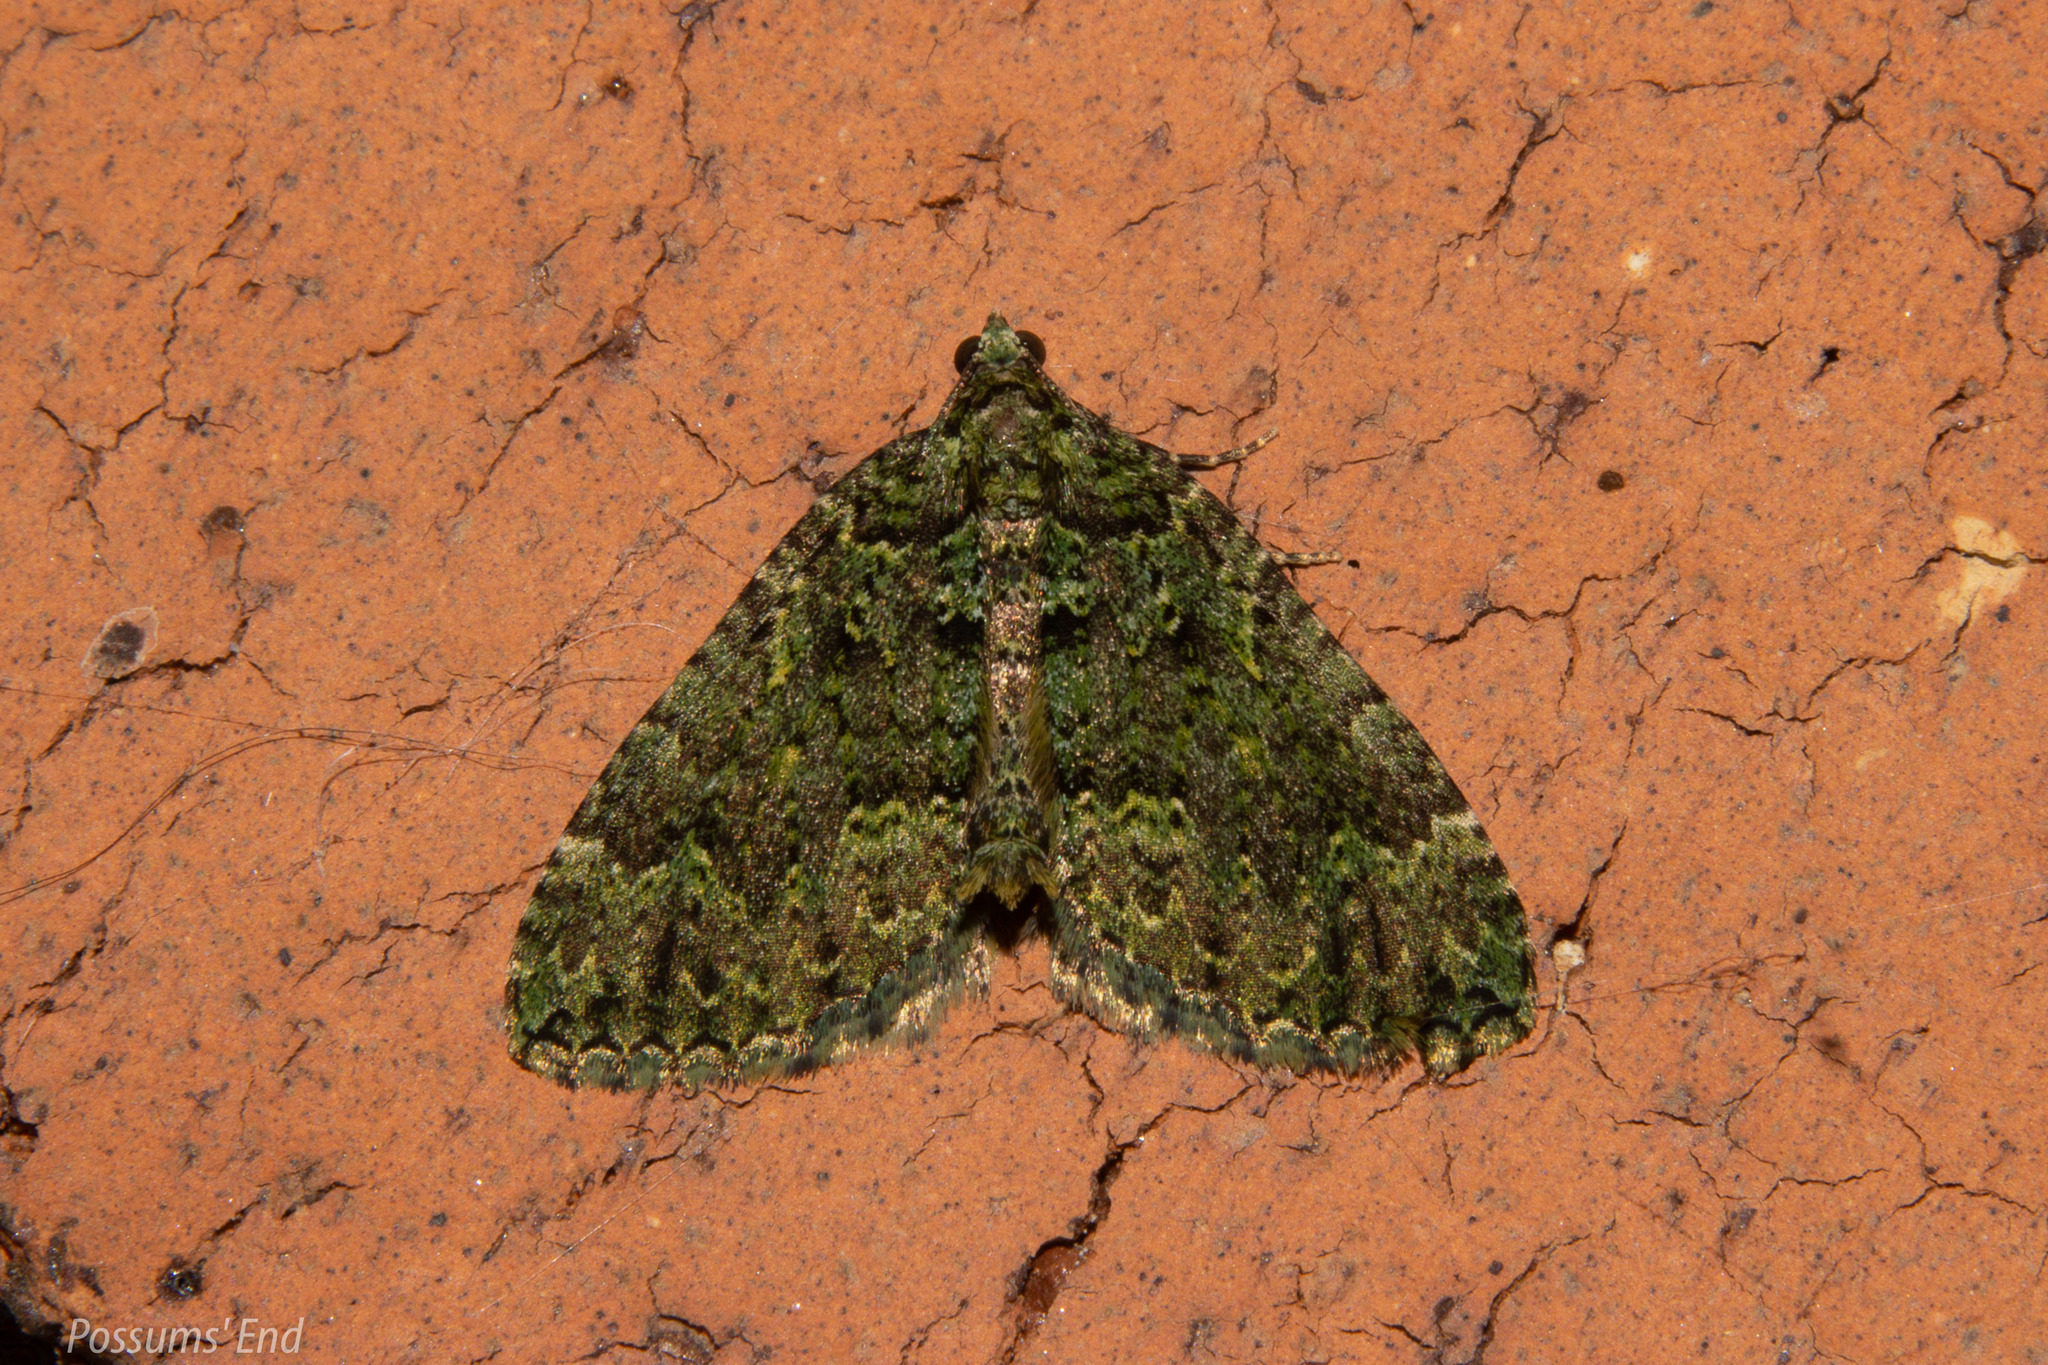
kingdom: Animalia
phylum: Arthropoda
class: Insecta
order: Lepidoptera
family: Geometridae
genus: Austrocidaria
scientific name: Austrocidaria callichlora
